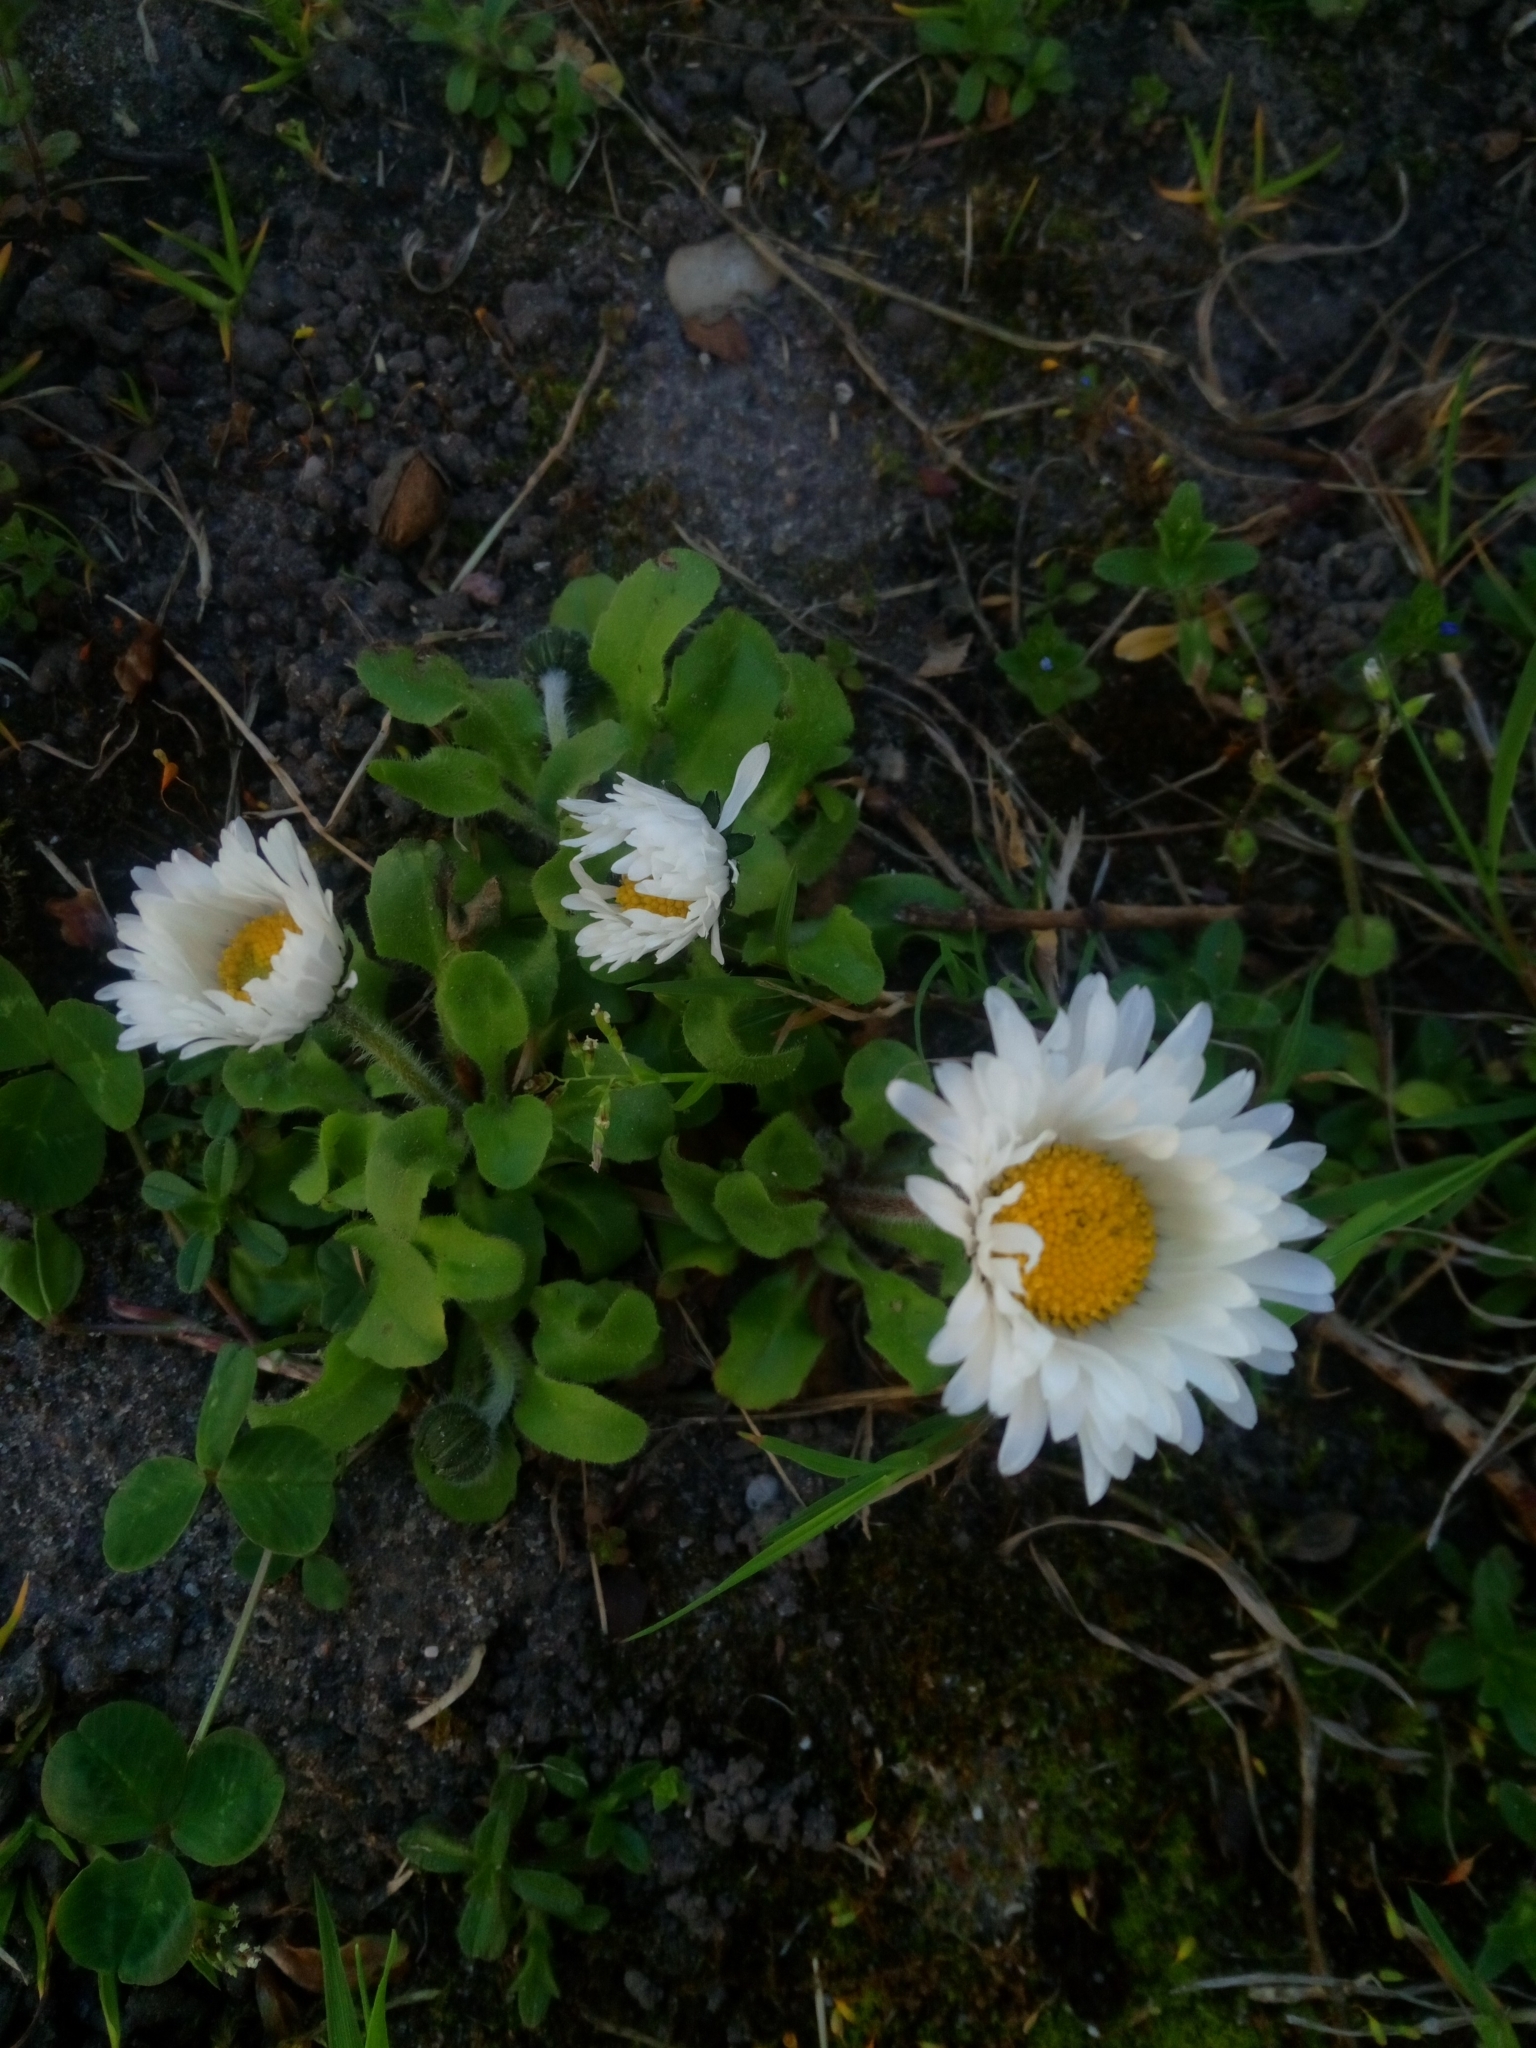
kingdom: Plantae
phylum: Tracheophyta
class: Magnoliopsida
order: Asterales
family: Asteraceae
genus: Bellis
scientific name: Bellis perennis
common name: Lawndaisy
